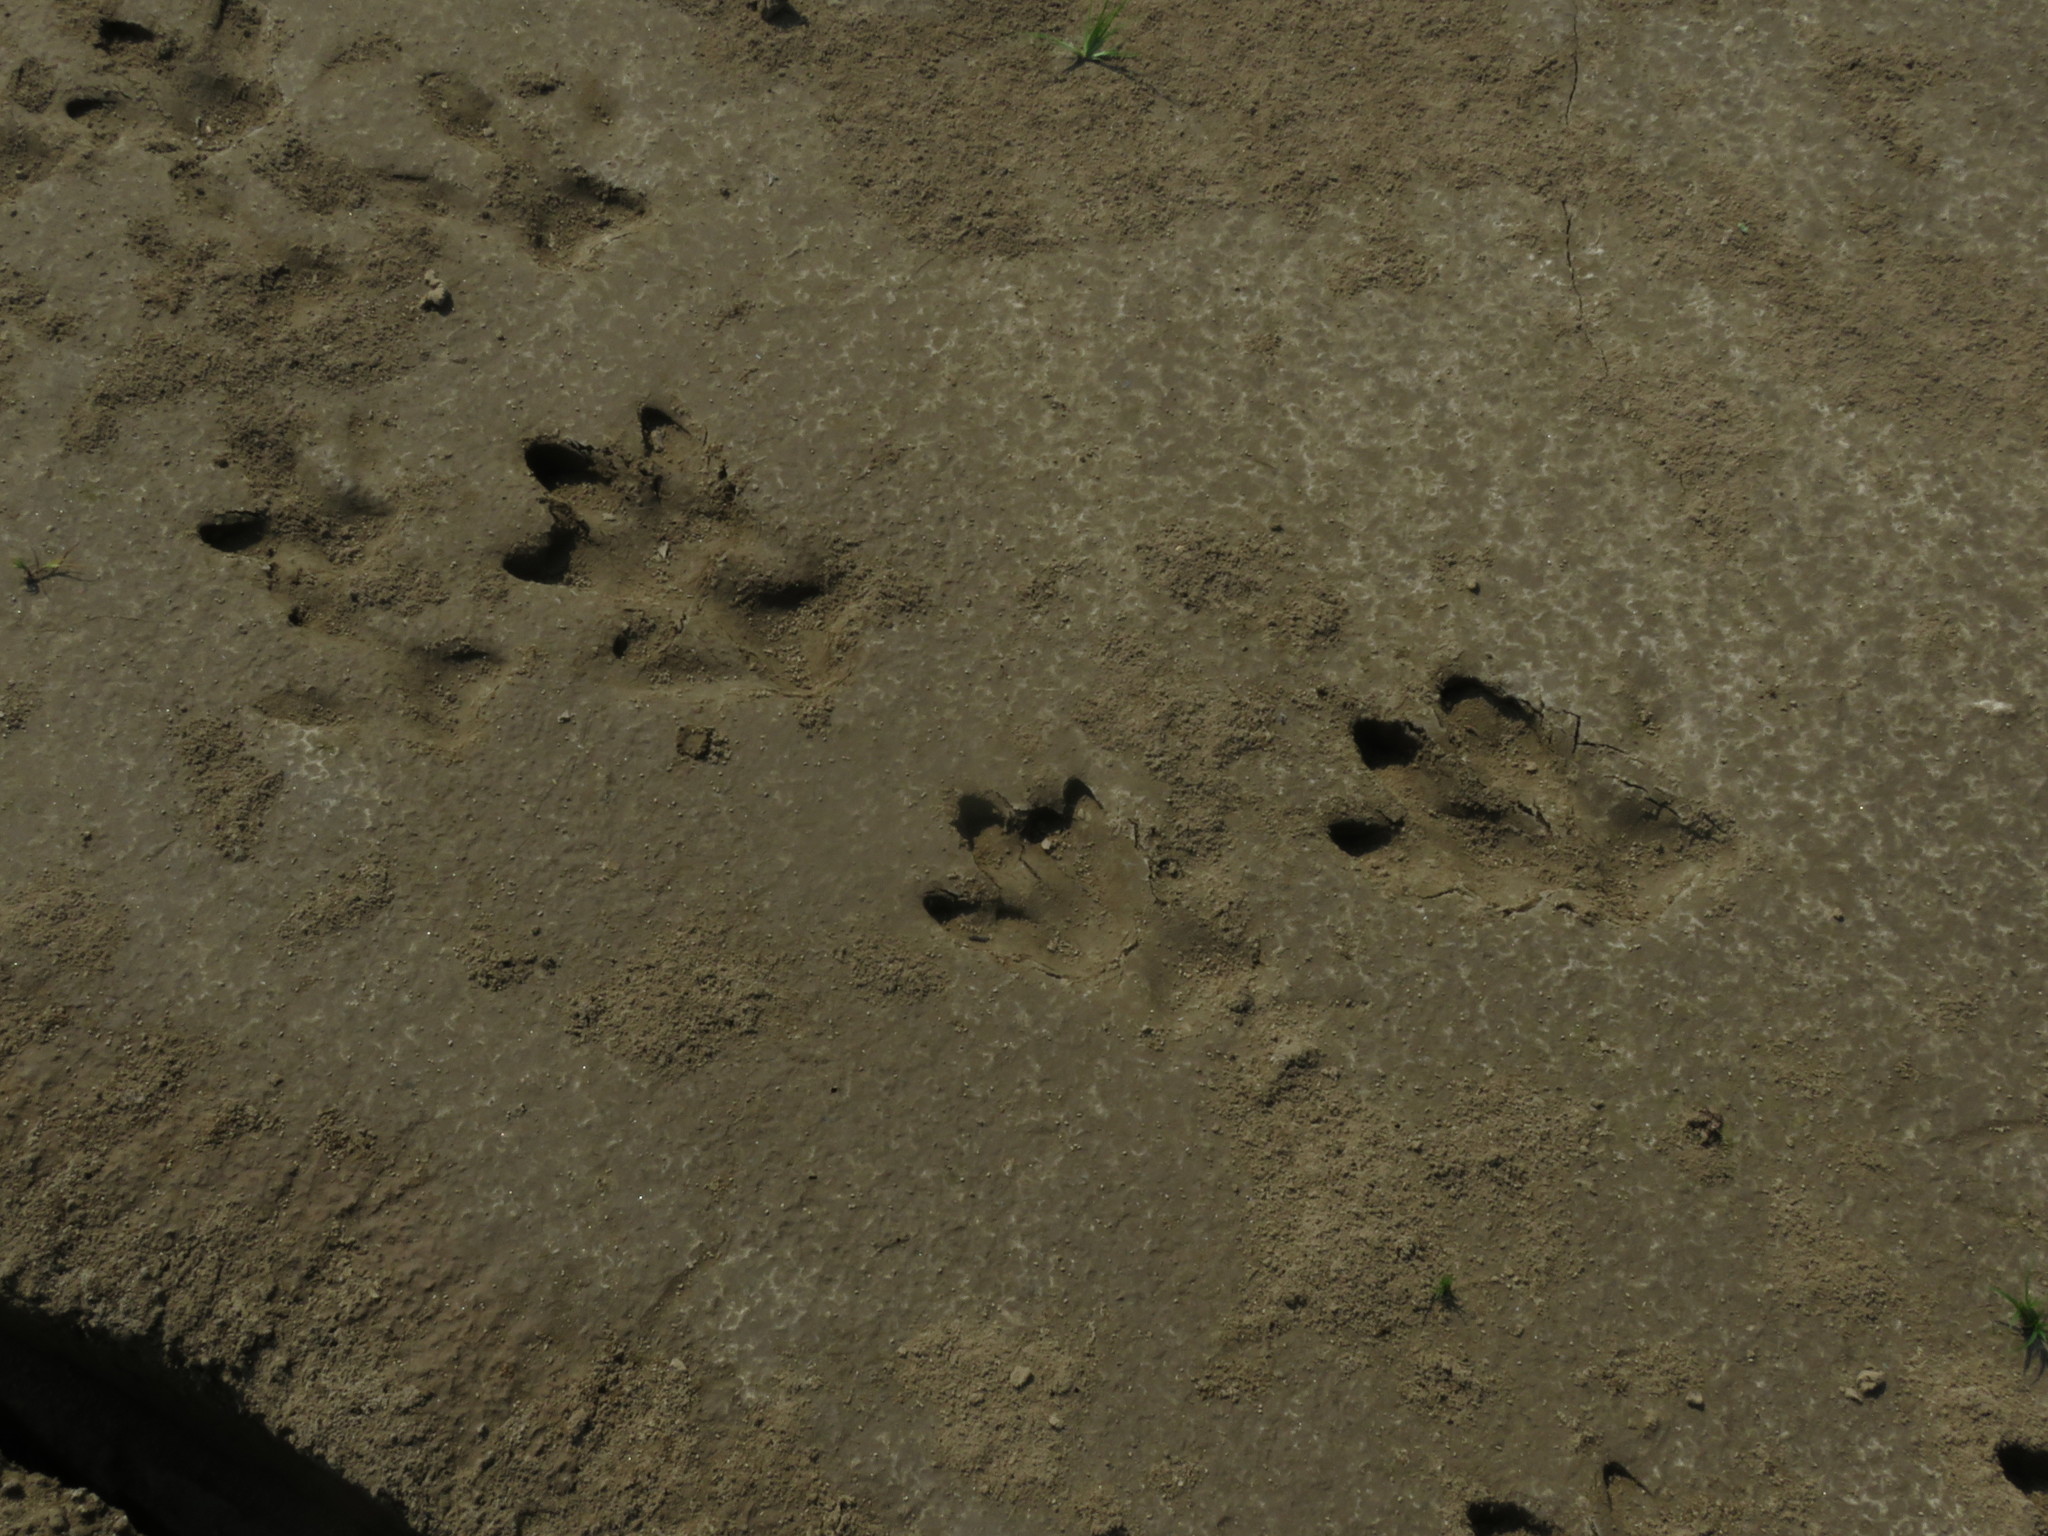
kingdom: Animalia
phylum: Chordata
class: Mammalia
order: Rodentia
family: Caviidae
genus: Hydrochoerus
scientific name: Hydrochoerus hydrochaeris
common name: Capybara
